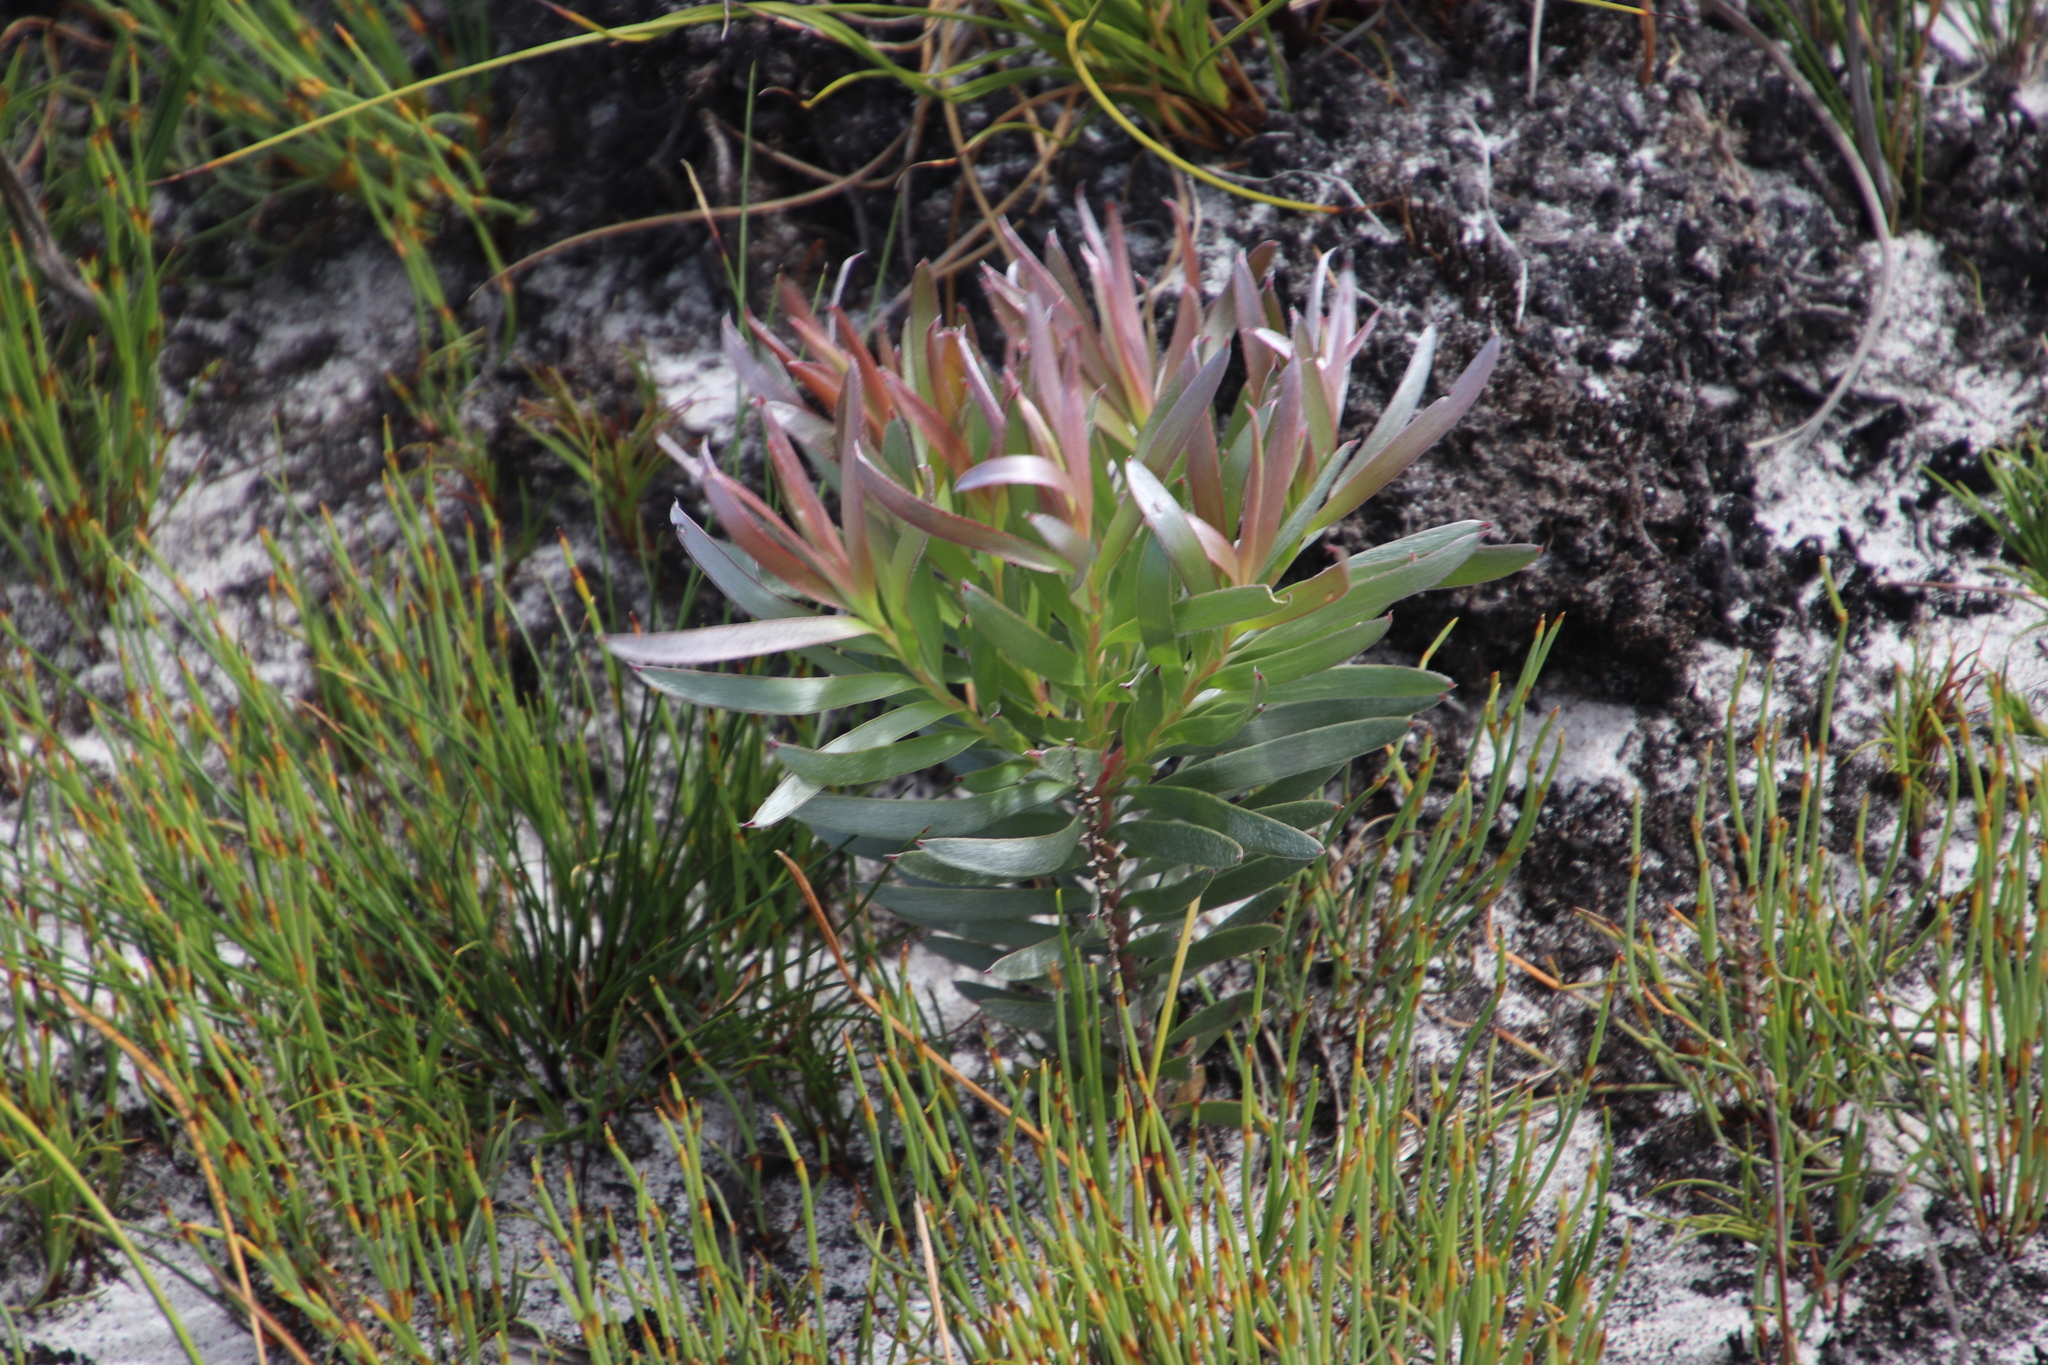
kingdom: Plantae
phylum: Tracheophyta
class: Magnoliopsida
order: Proteales
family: Proteaceae
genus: Leucadendron
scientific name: Leucadendron xanthoconus
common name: Sickle-leaf conebush
